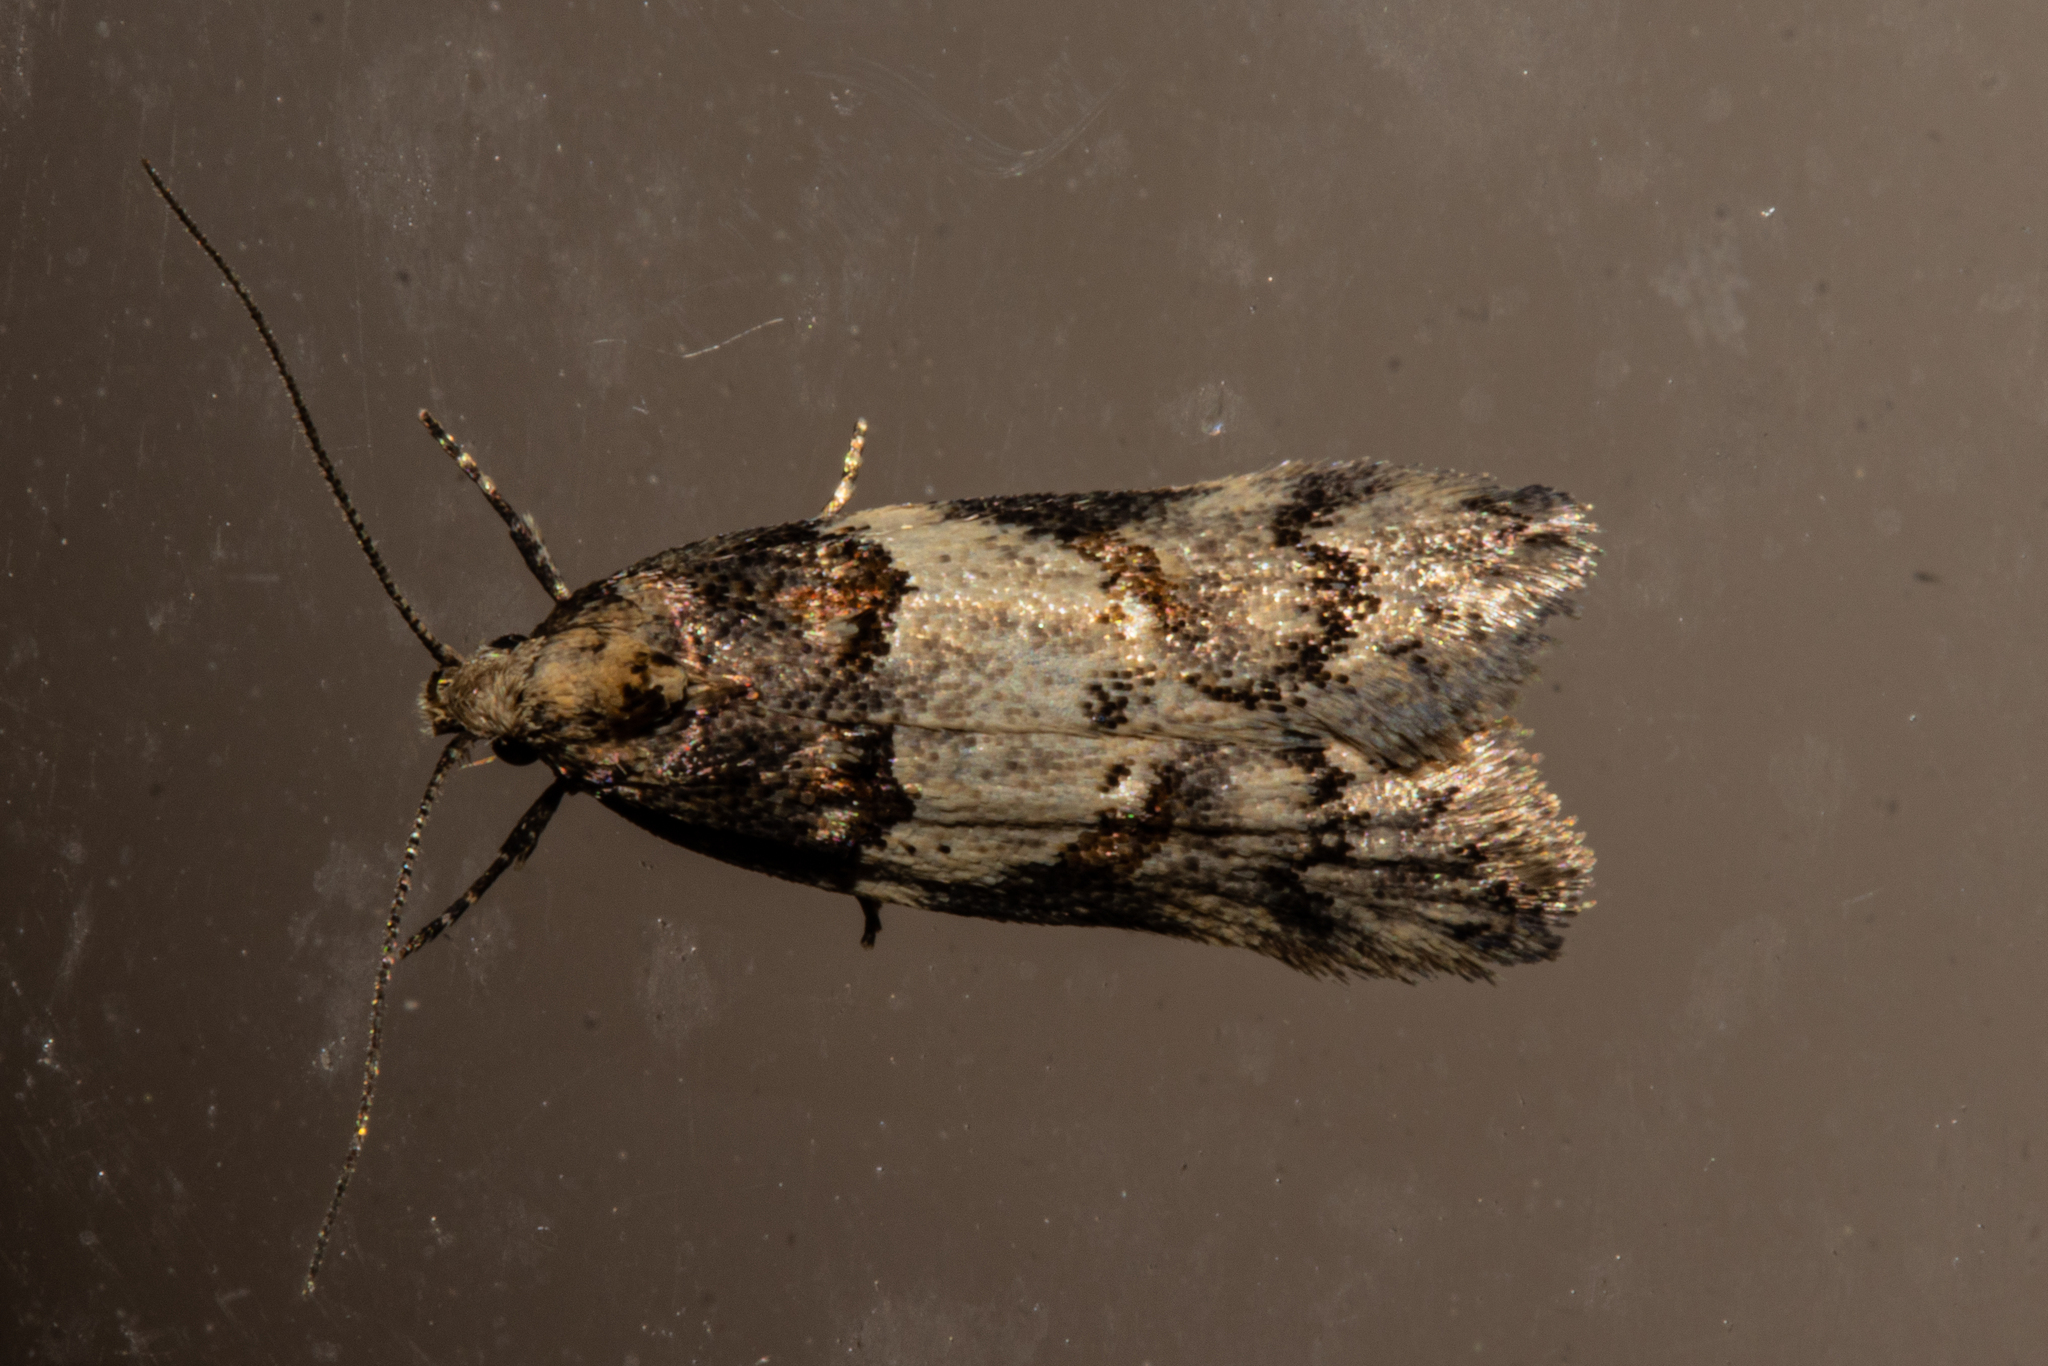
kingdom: Animalia
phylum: Arthropoda
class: Insecta
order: Lepidoptera
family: Oecophoridae
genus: Trachypepla
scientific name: Trachypepla contritella
